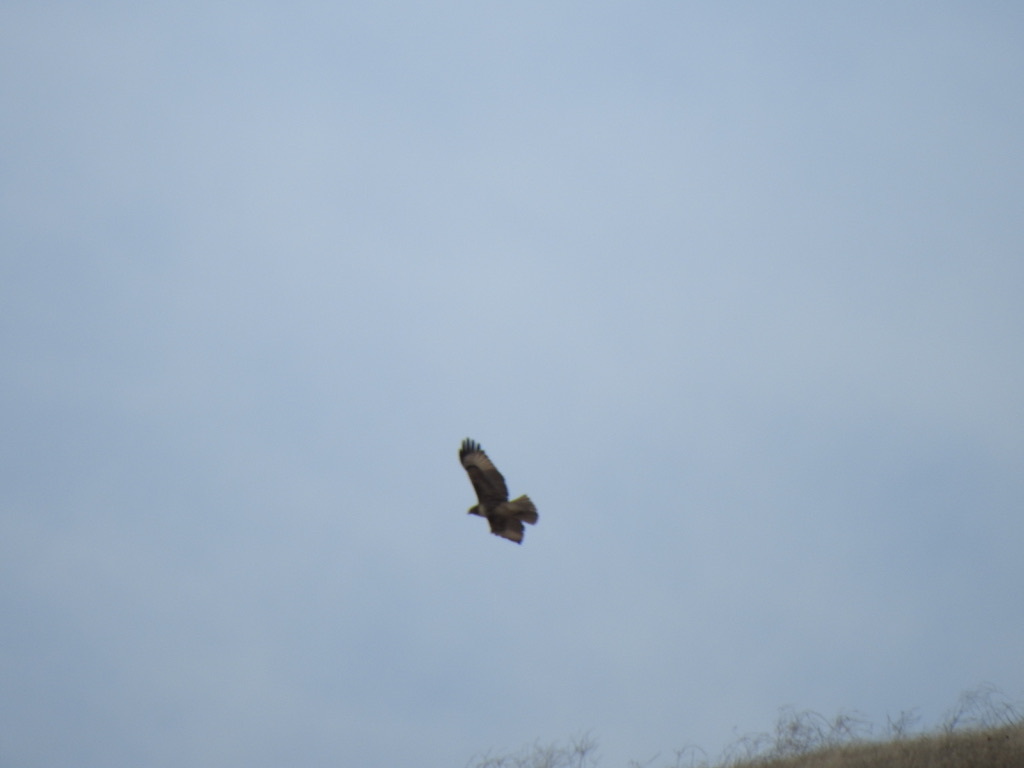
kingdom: Animalia
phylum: Chordata
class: Aves
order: Accipitriformes
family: Accipitridae
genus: Buteo
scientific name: Buteo jamaicensis
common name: Red-tailed hawk
